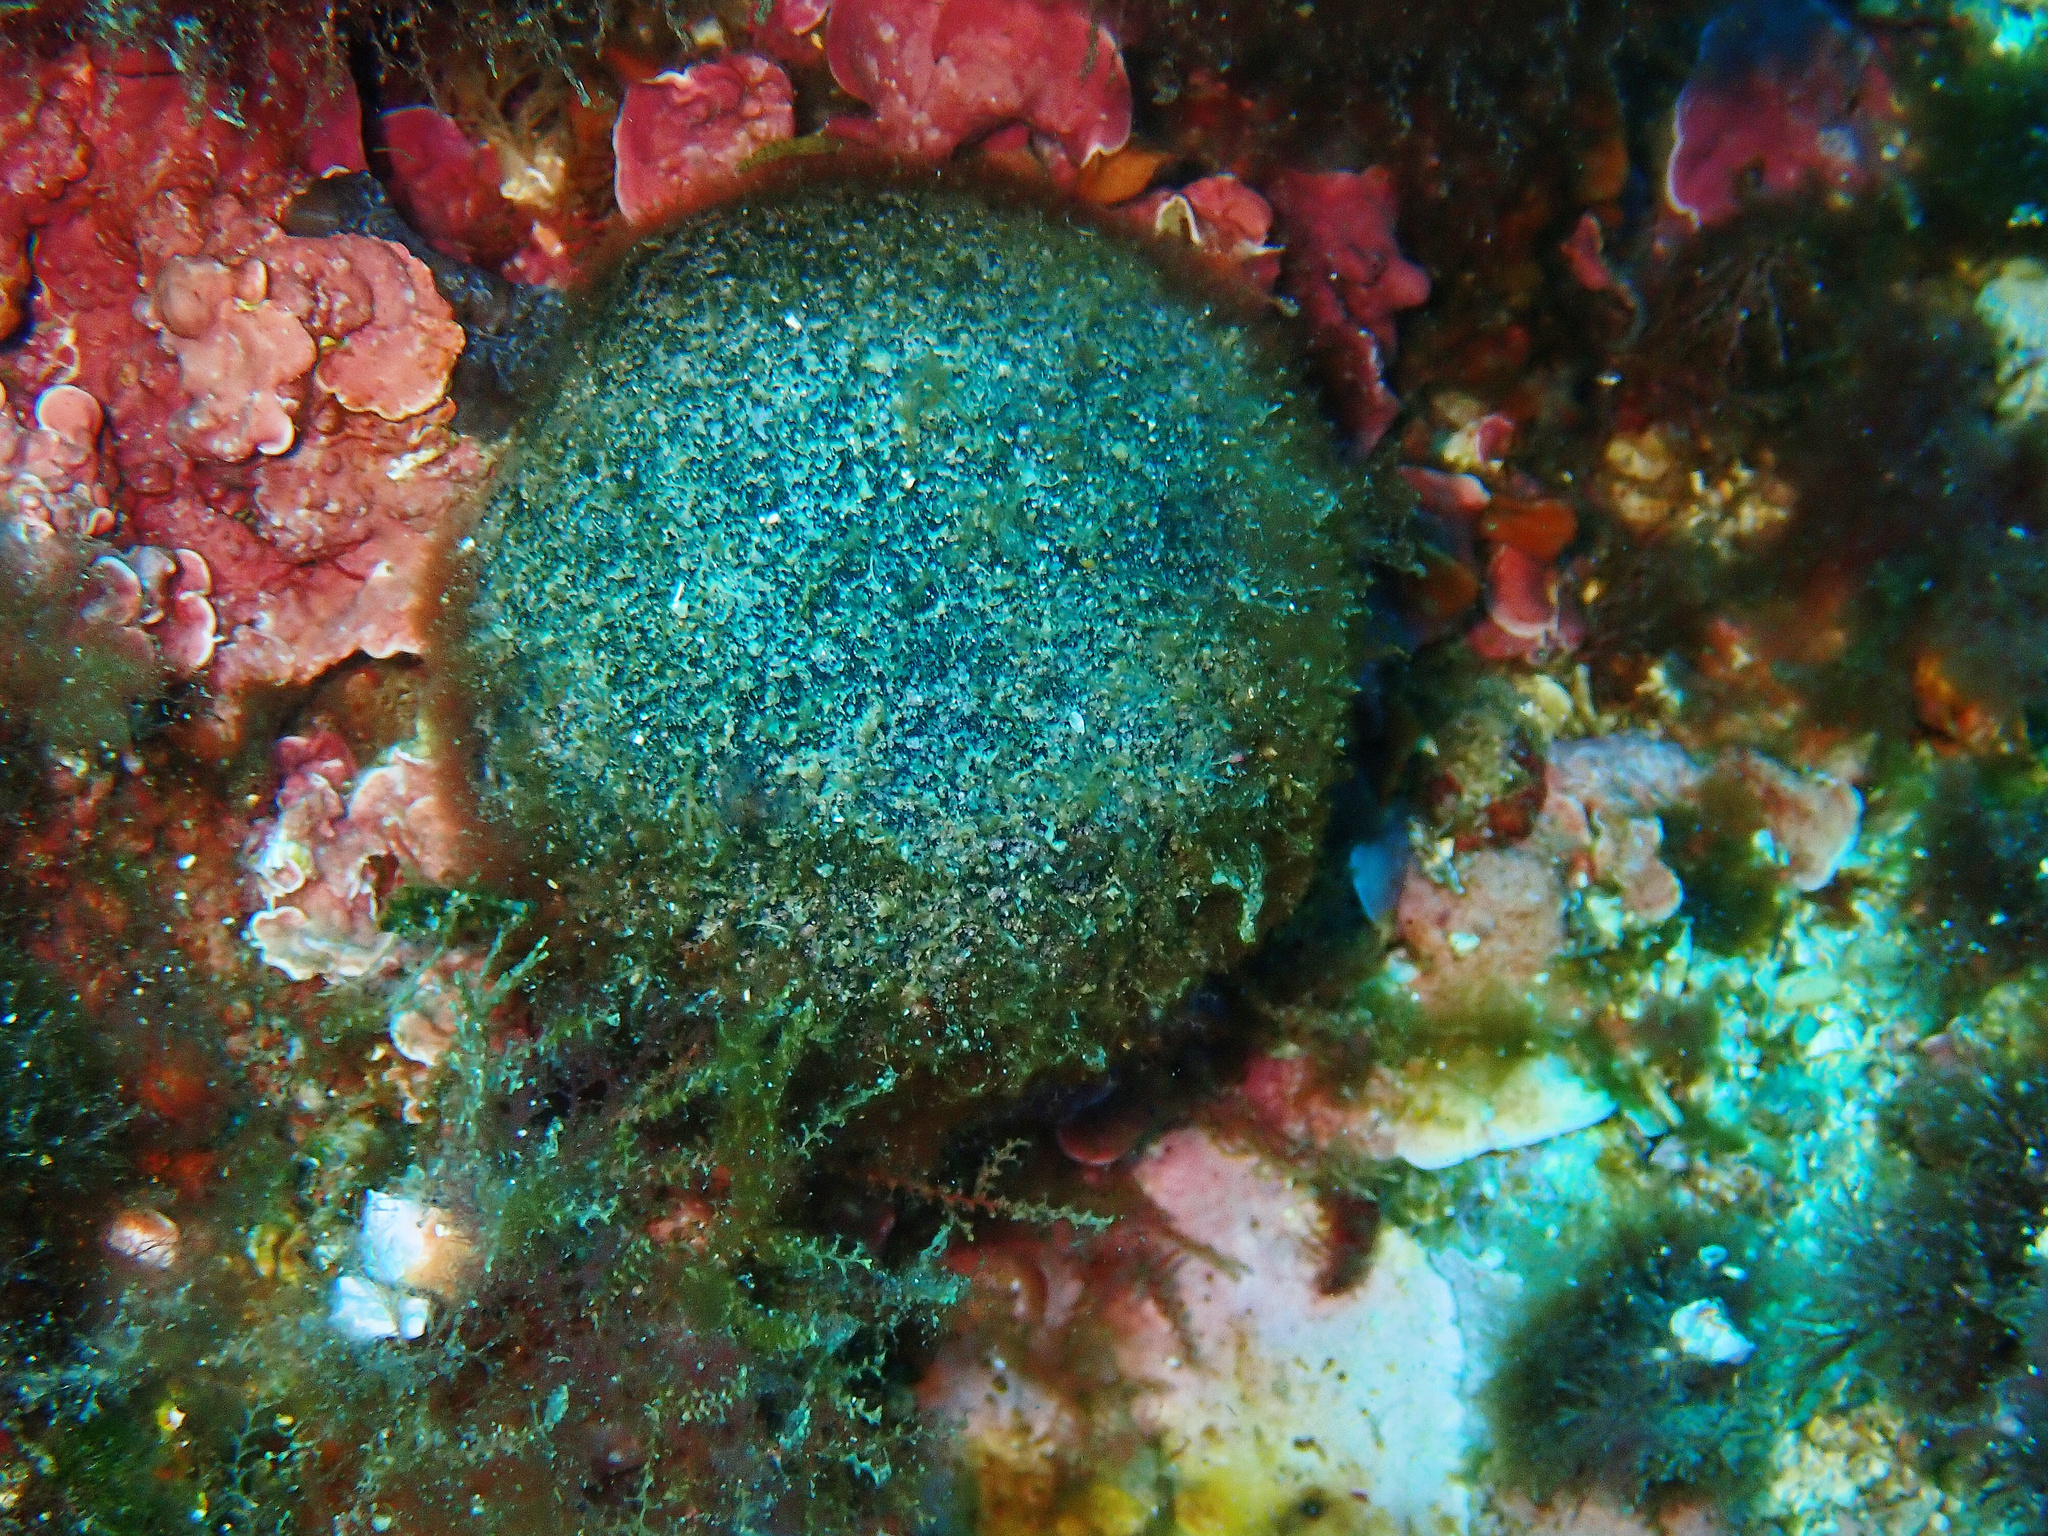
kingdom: Plantae
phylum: Chlorophyta
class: Ulvophyceae
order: Bryopsidales
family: Codiaceae
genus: Codium
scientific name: Codium bursa
